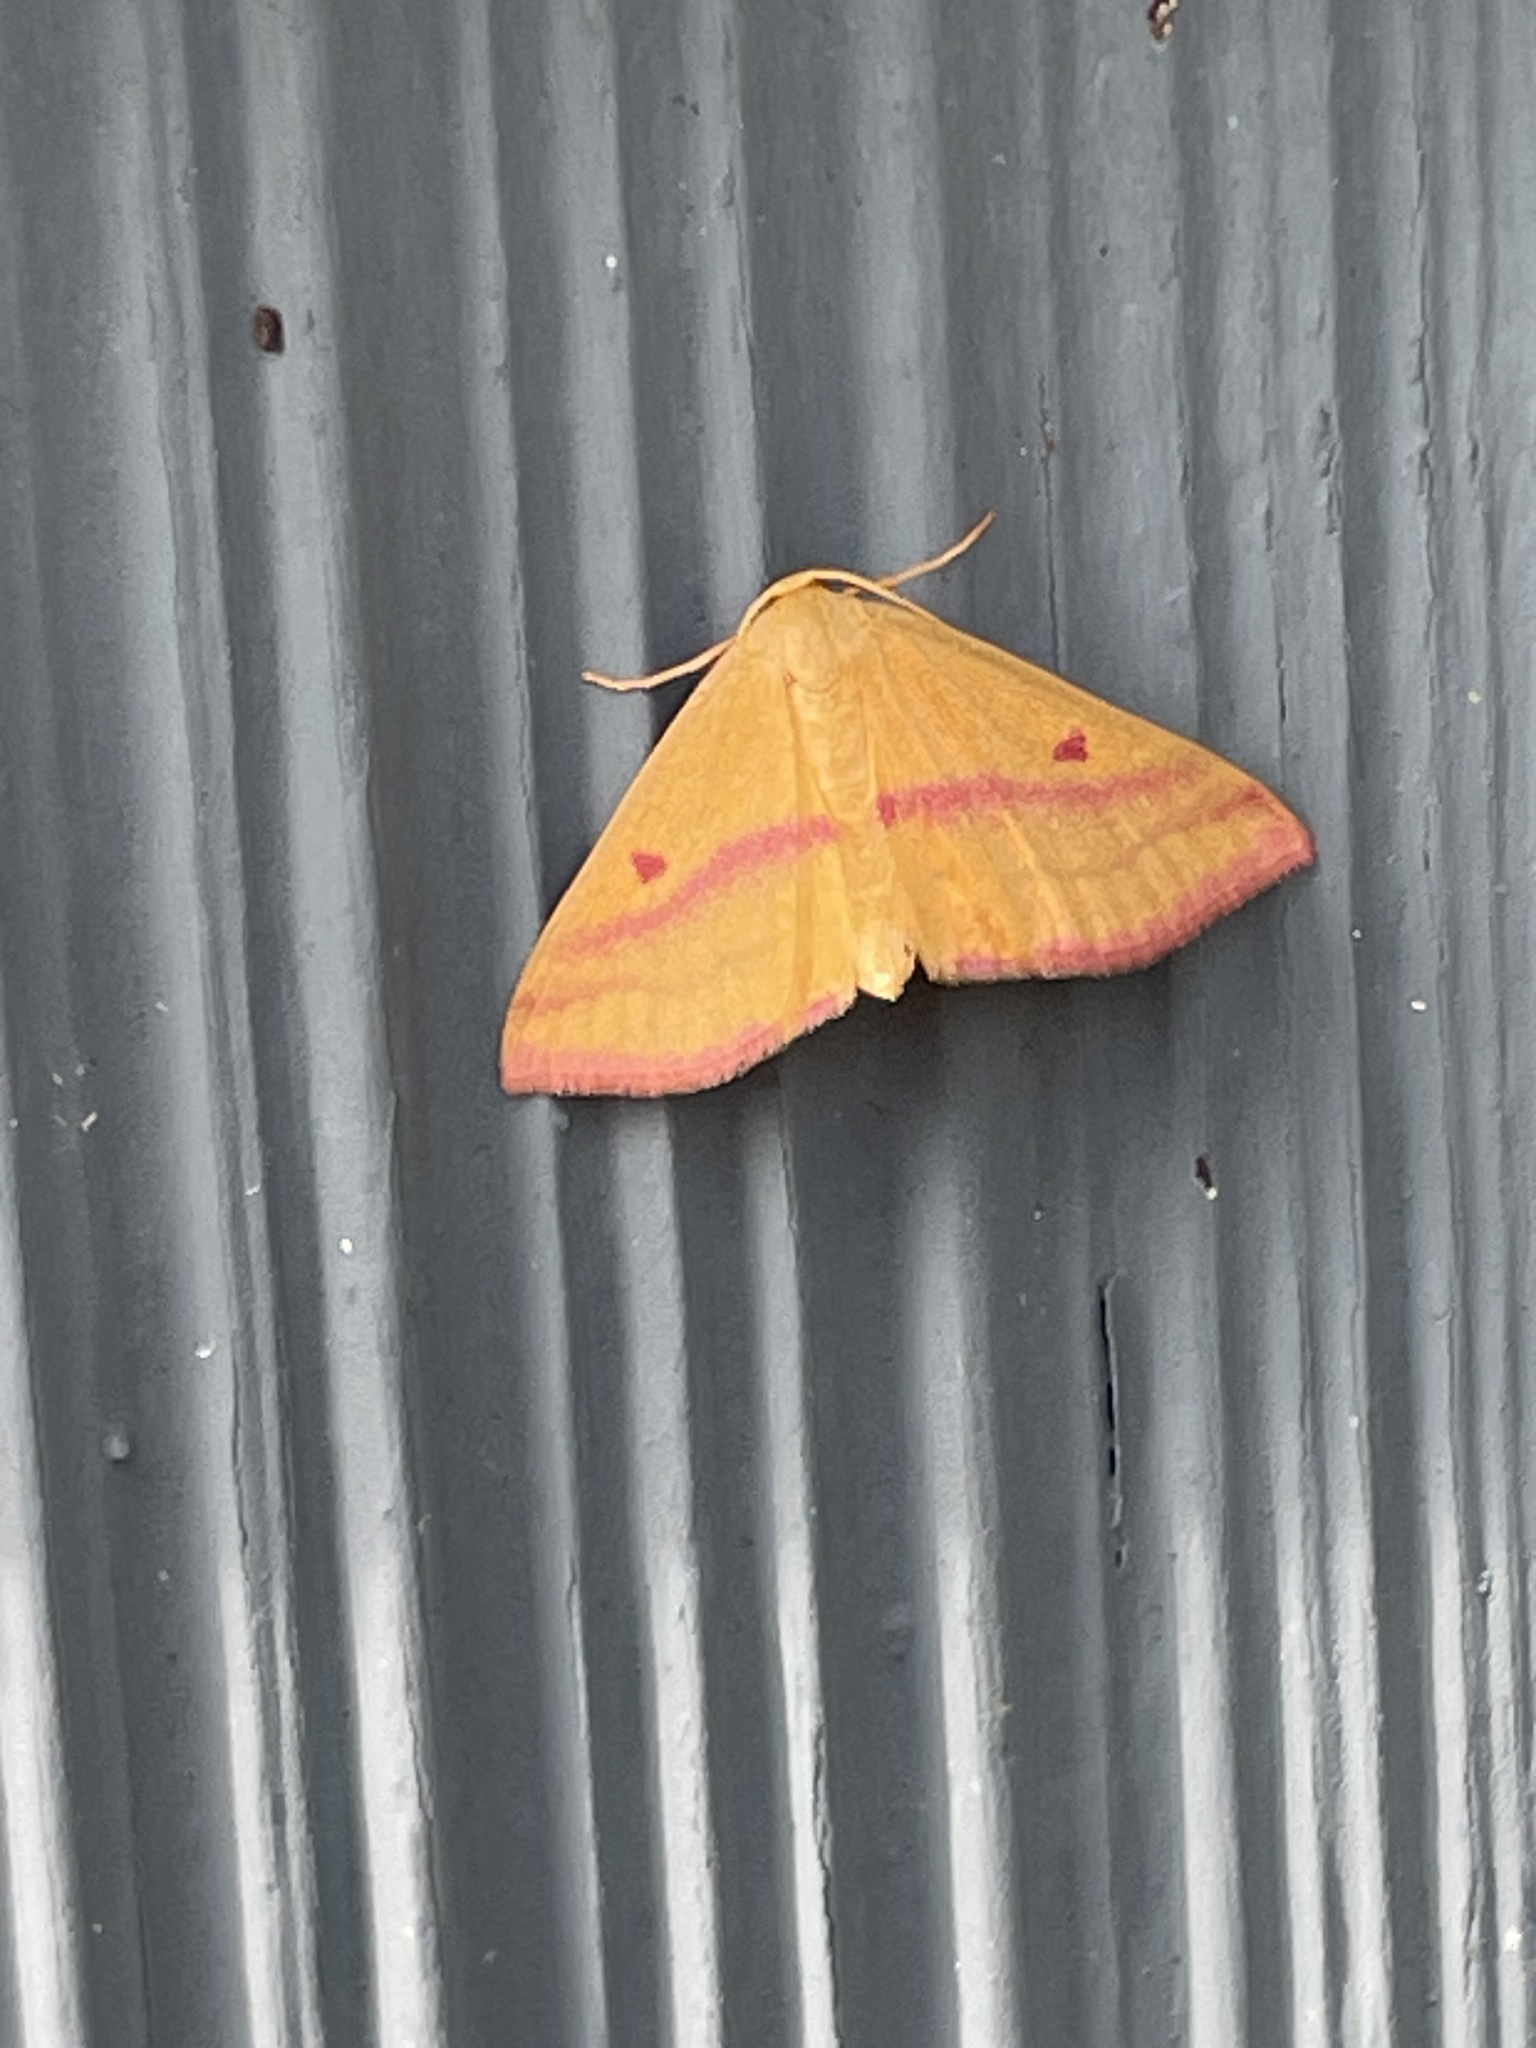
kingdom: Animalia
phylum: Arthropoda
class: Insecta
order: Lepidoptera
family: Geometridae
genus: Haematopis
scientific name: Haematopis grataria
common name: Chickweed geometer
